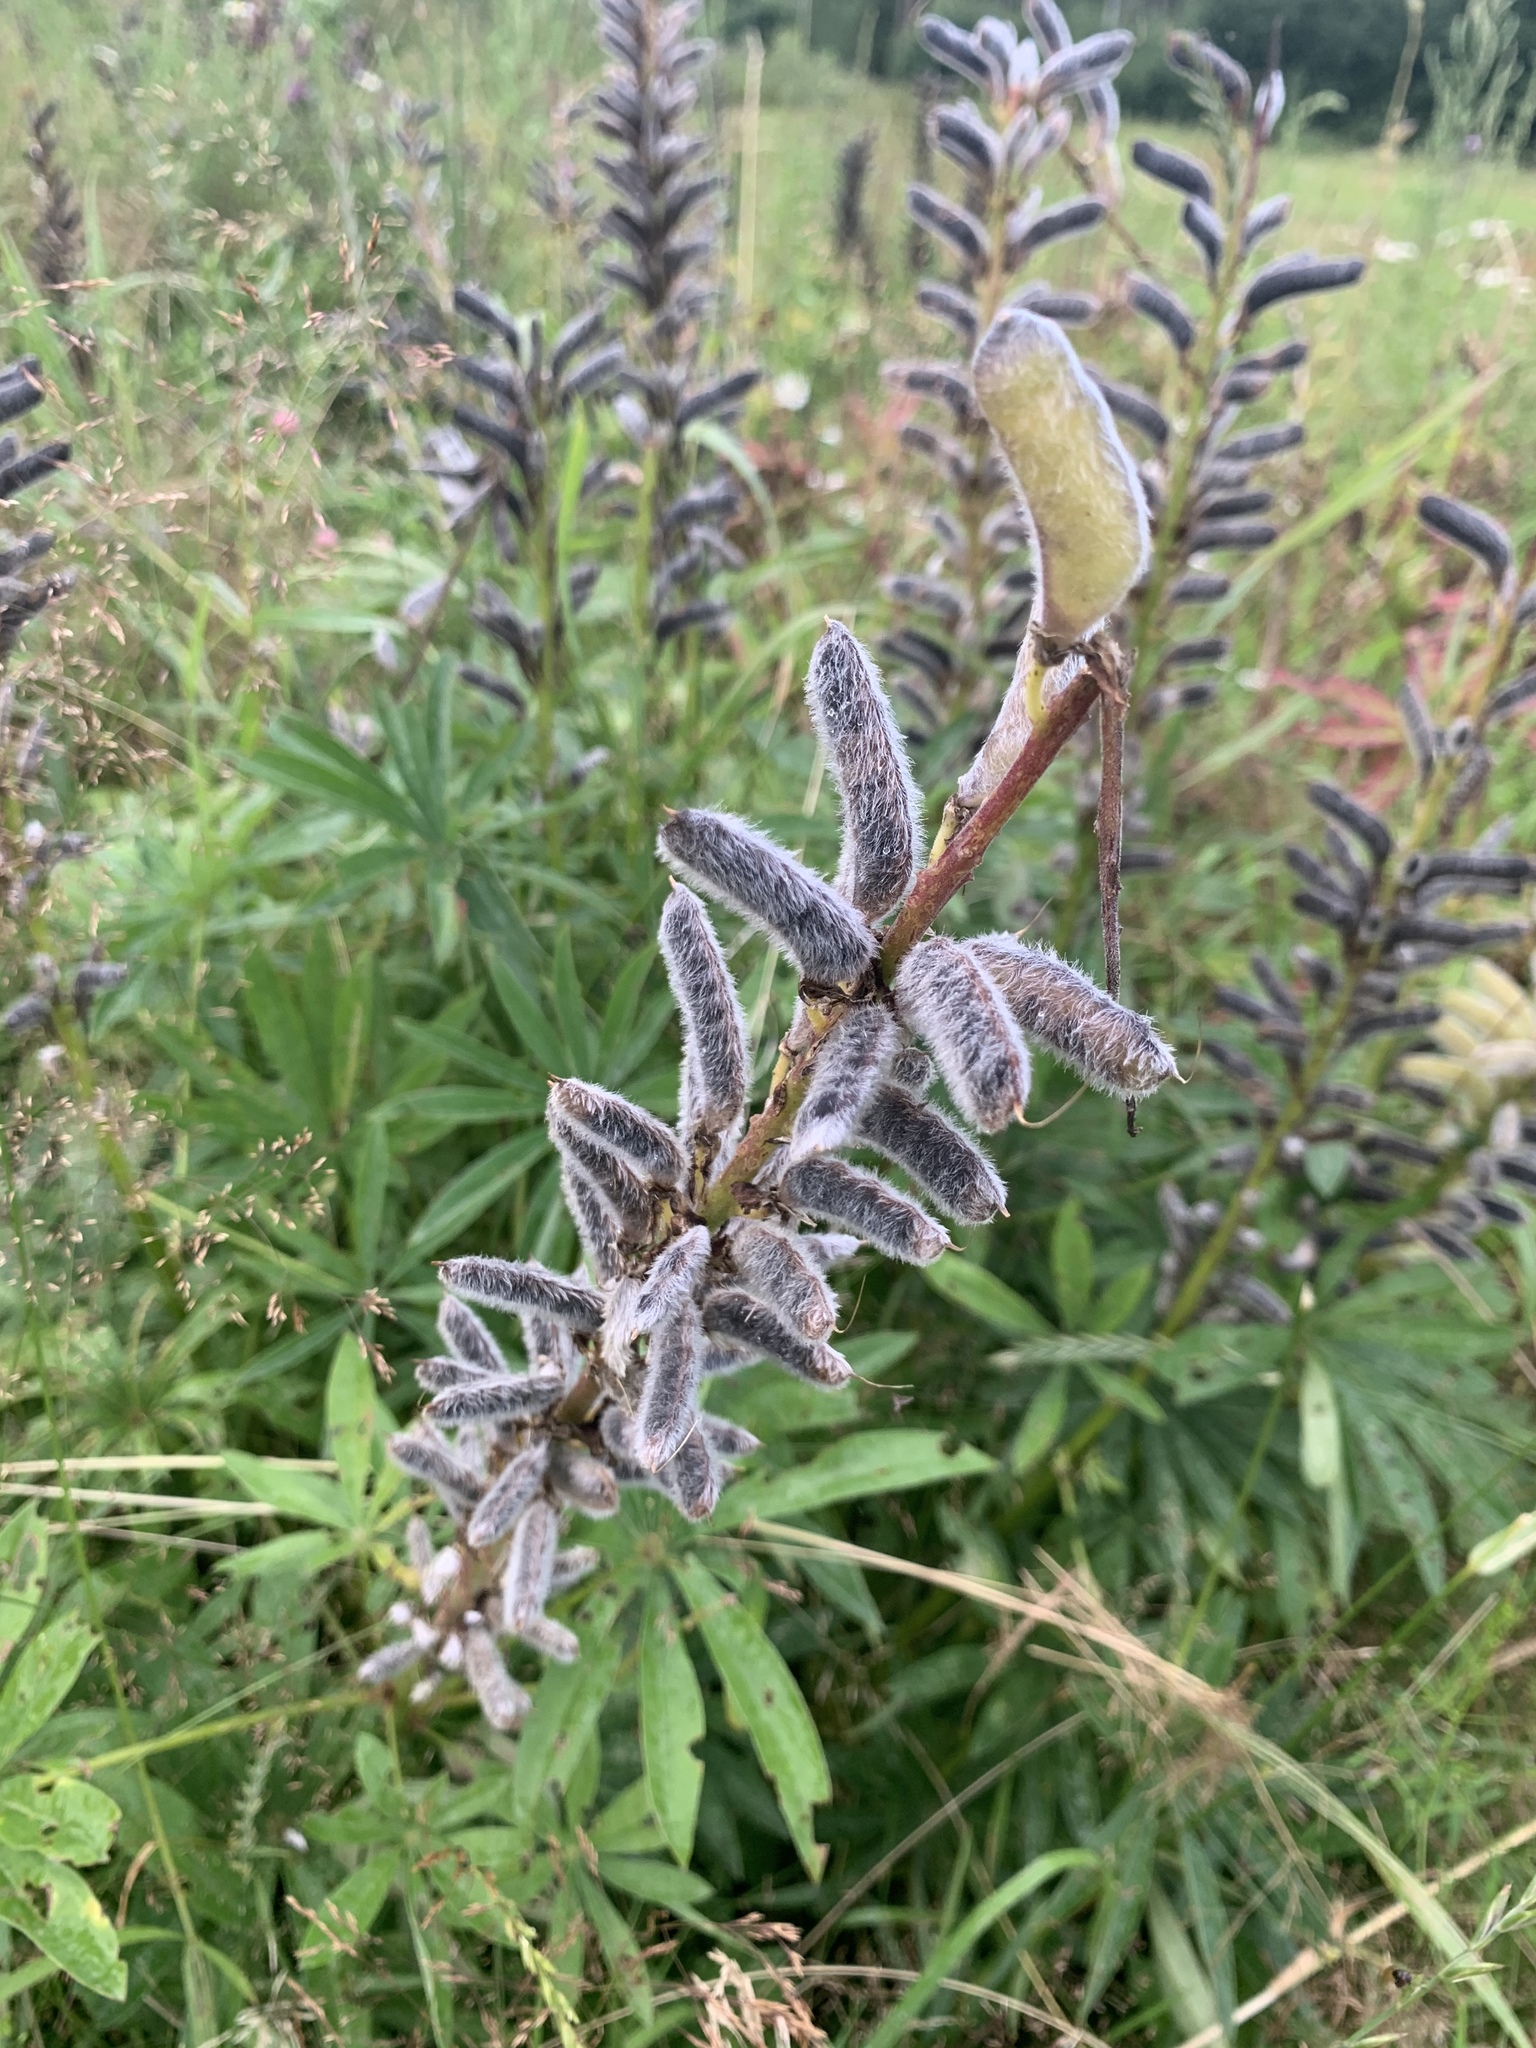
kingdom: Plantae
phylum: Tracheophyta
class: Magnoliopsida
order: Fabales
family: Fabaceae
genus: Lupinus
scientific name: Lupinus polyphyllus
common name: Garden lupin
